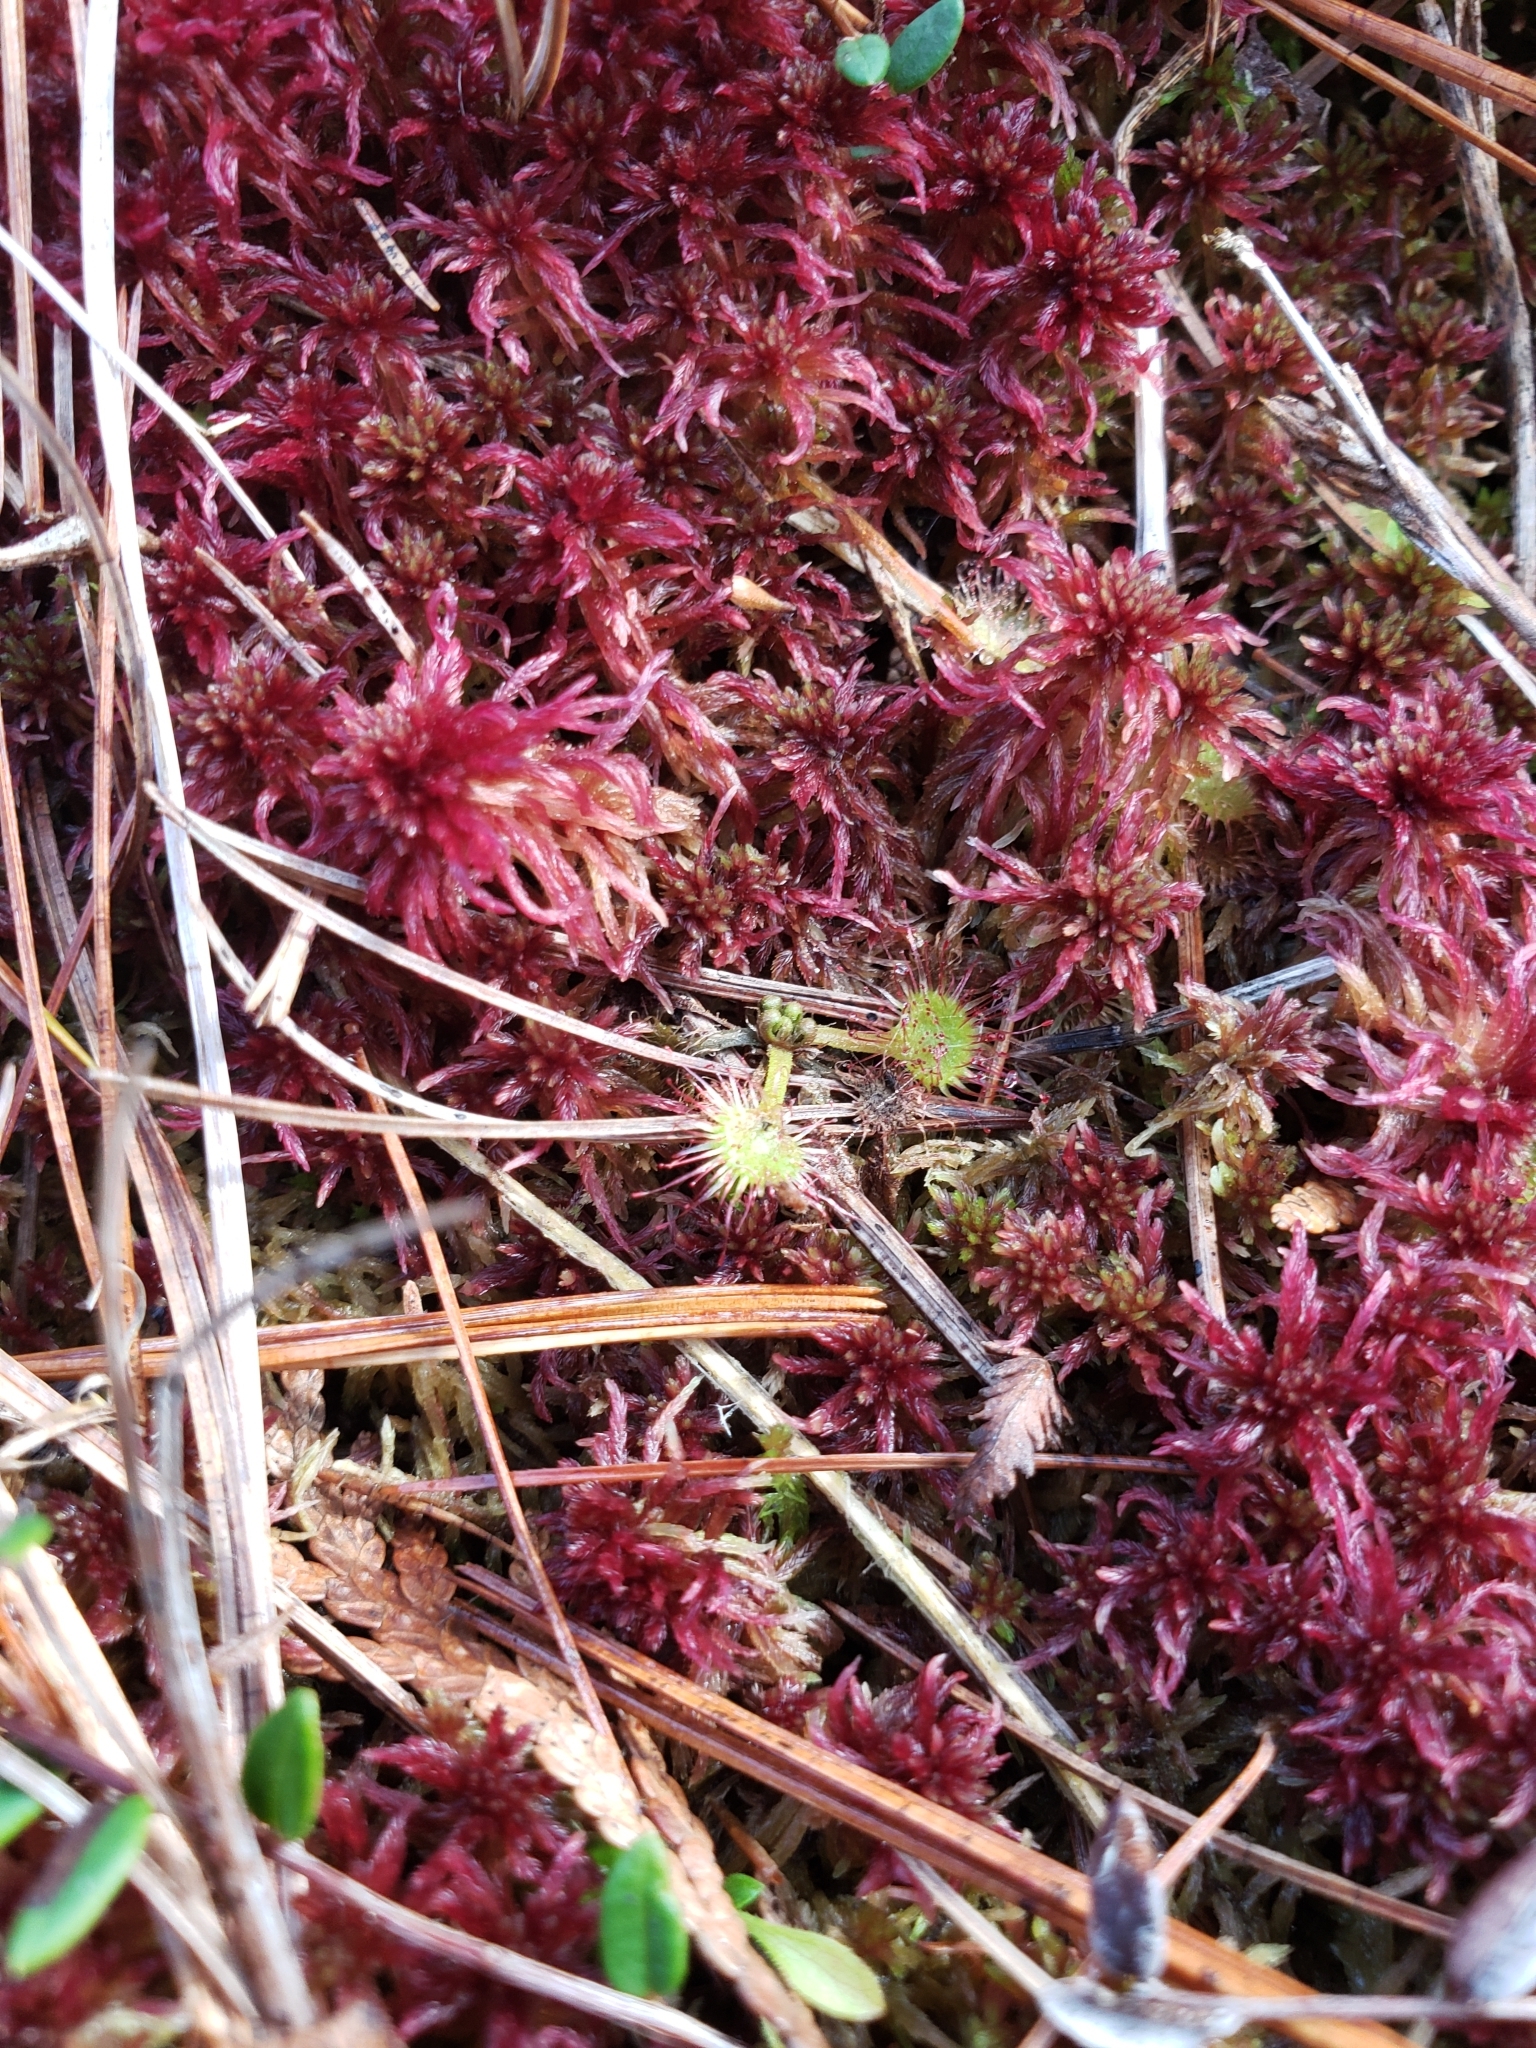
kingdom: Plantae
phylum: Tracheophyta
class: Magnoliopsida
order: Caryophyllales
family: Droseraceae
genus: Drosera
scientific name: Drosera rotundifolia
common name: Round-leaved sundew
